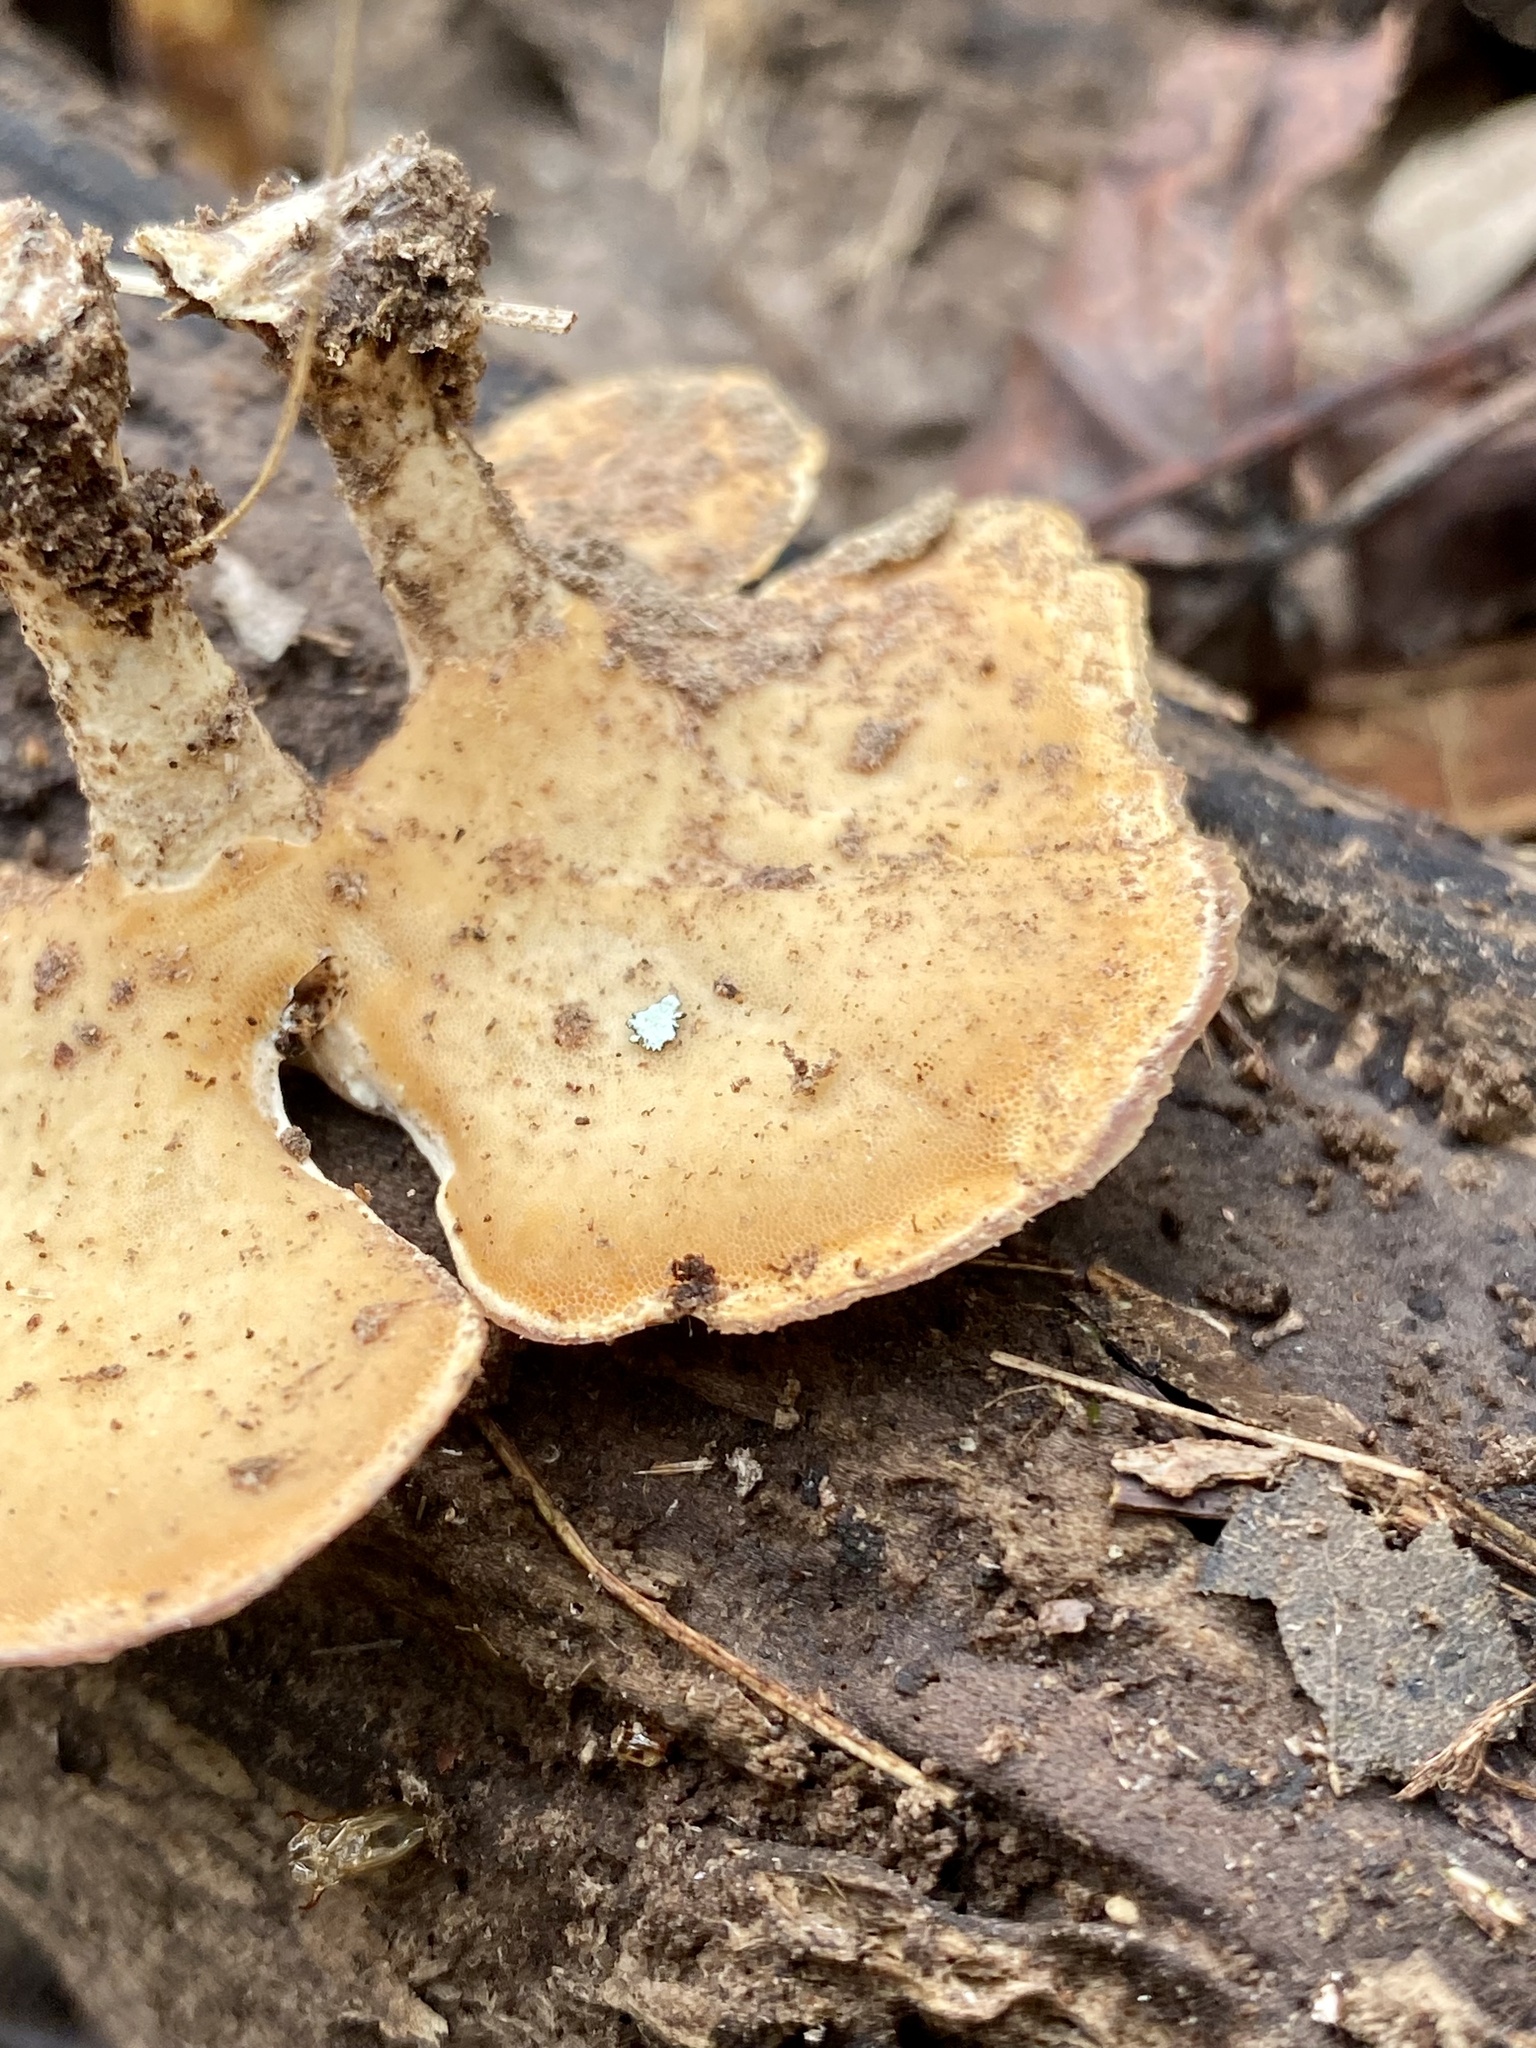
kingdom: Fungi
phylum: Basidiomycota
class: Agaricomycetes
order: Polyporales
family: Polyporaceae
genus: Microporellus
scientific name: Microporellus obovatus
